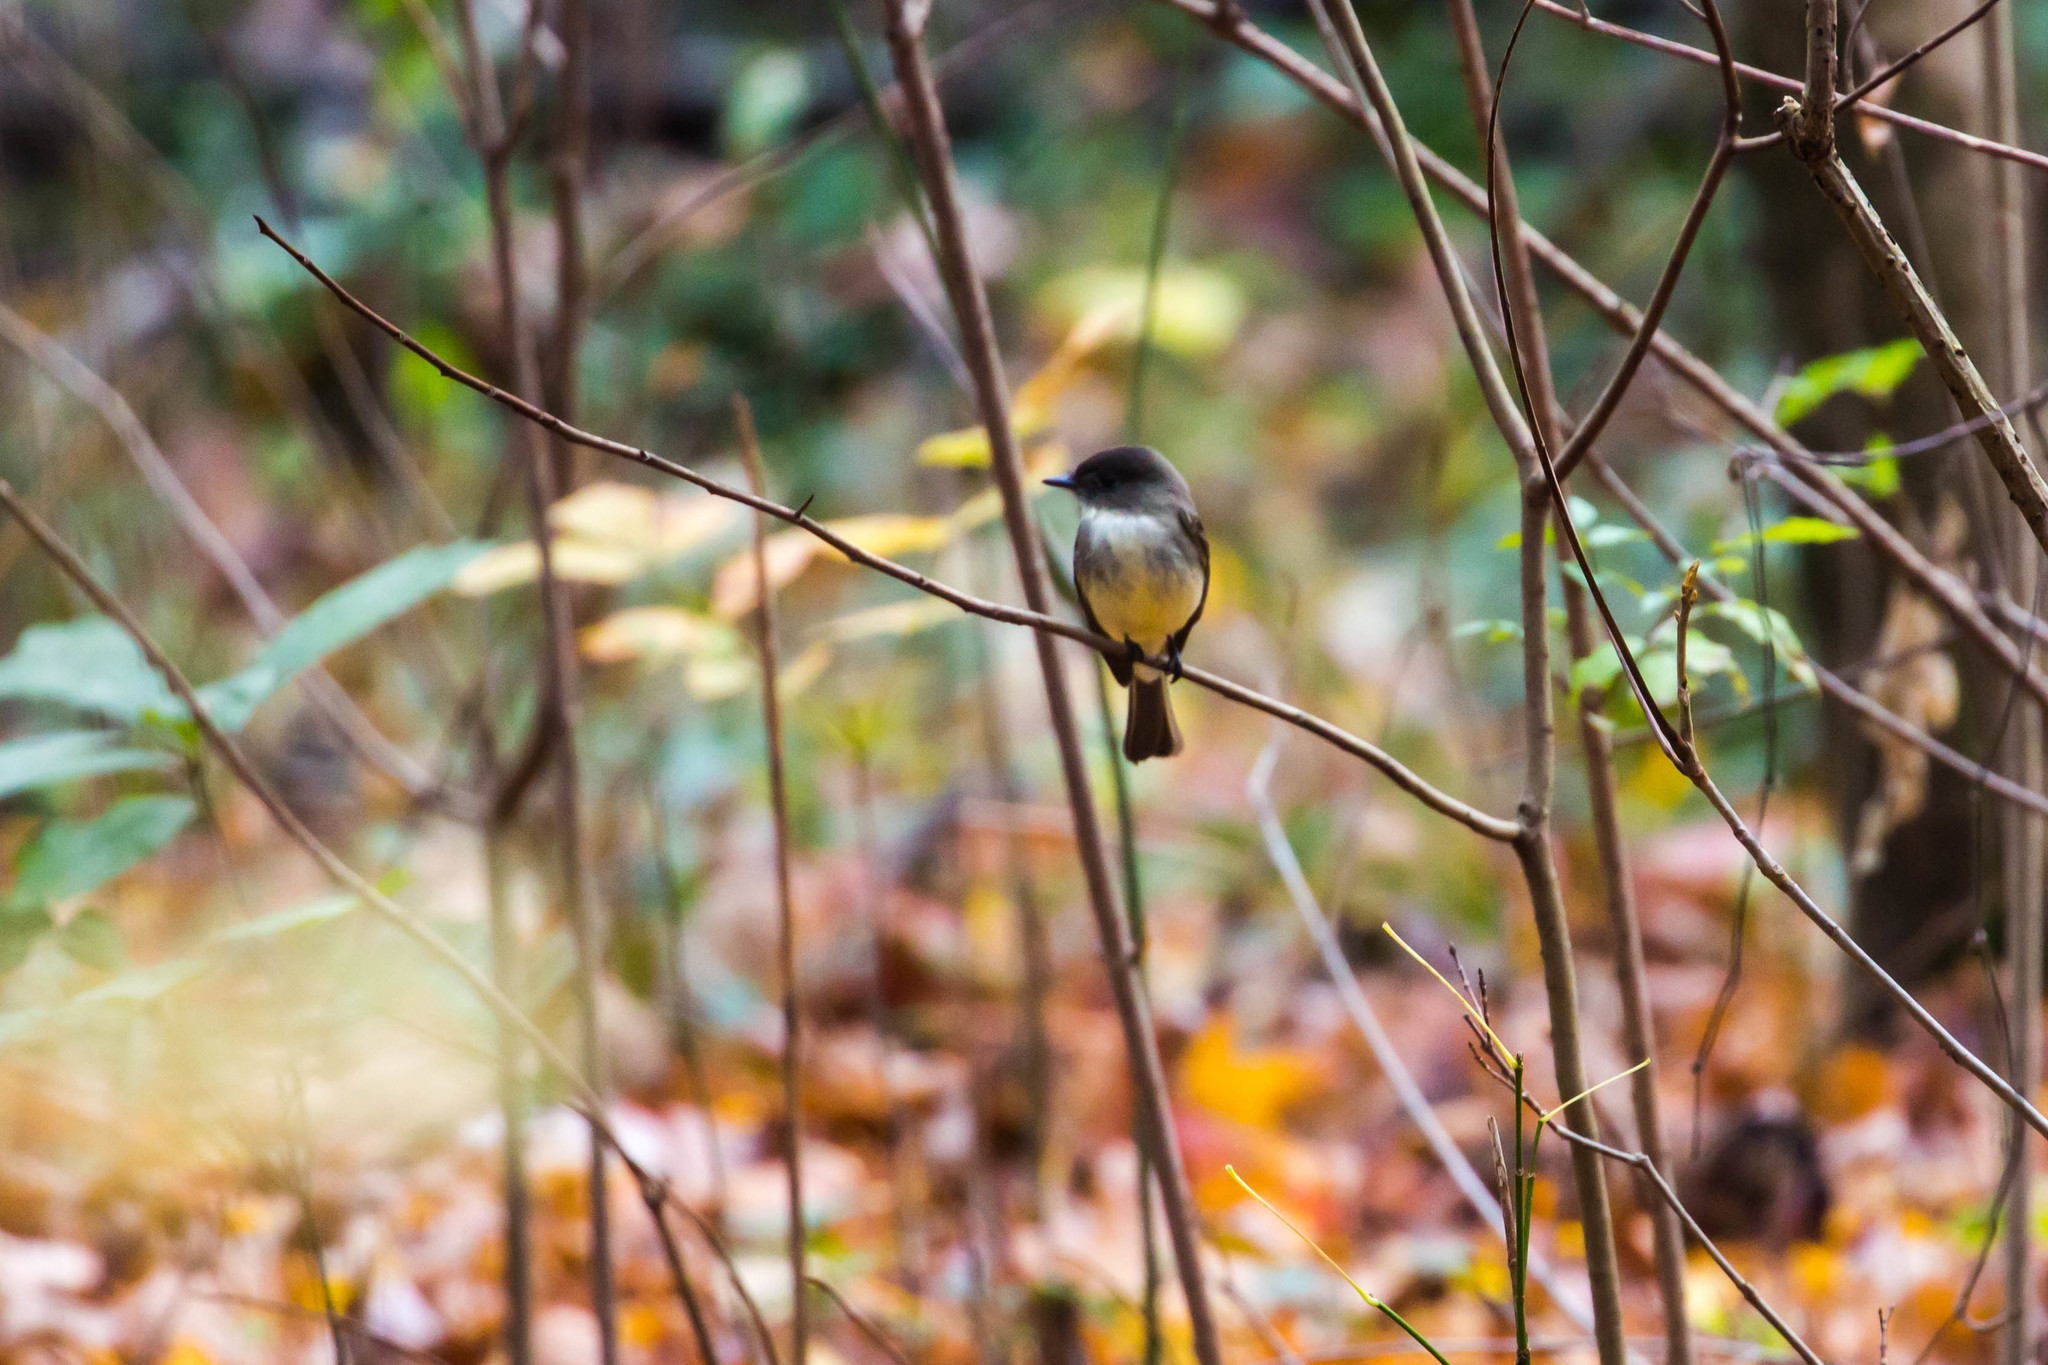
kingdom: Animalia
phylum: Chordata
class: Aves
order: Passeriformes
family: Tyrannidae
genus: Sayornis
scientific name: Sayornis phoebe
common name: Eastern phoebe
